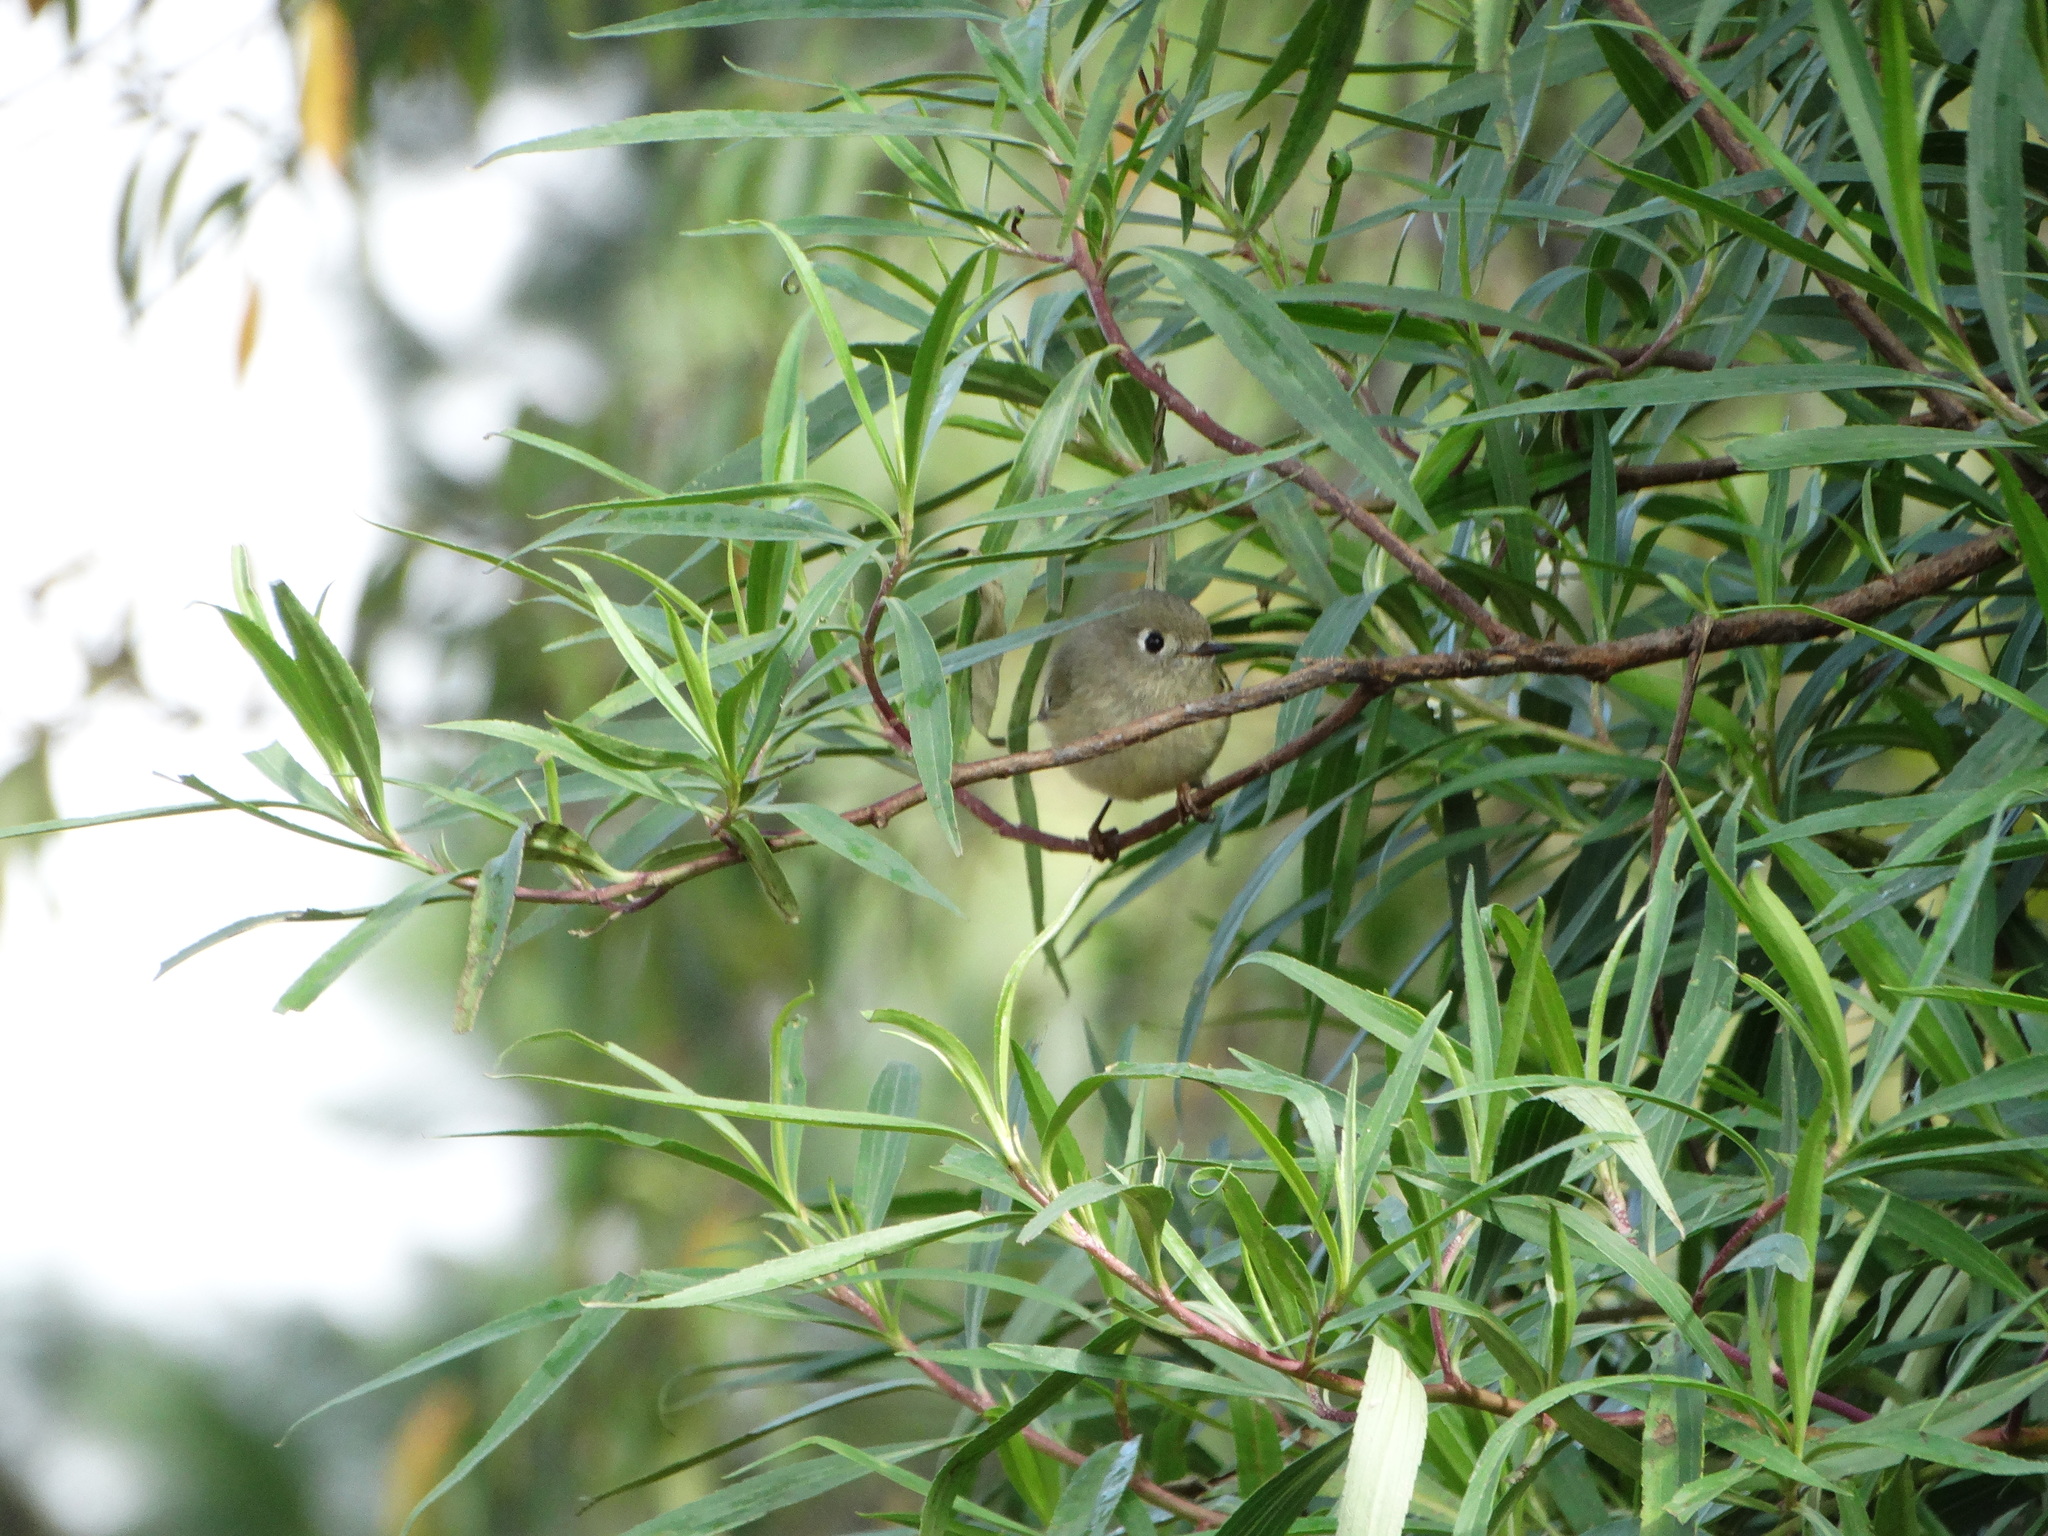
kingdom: Animalia
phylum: Chordata
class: Aves
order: Passeriformes
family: Regulidae
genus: Regulus
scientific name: Regulus calendula
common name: Ruby-crowned kinglet
